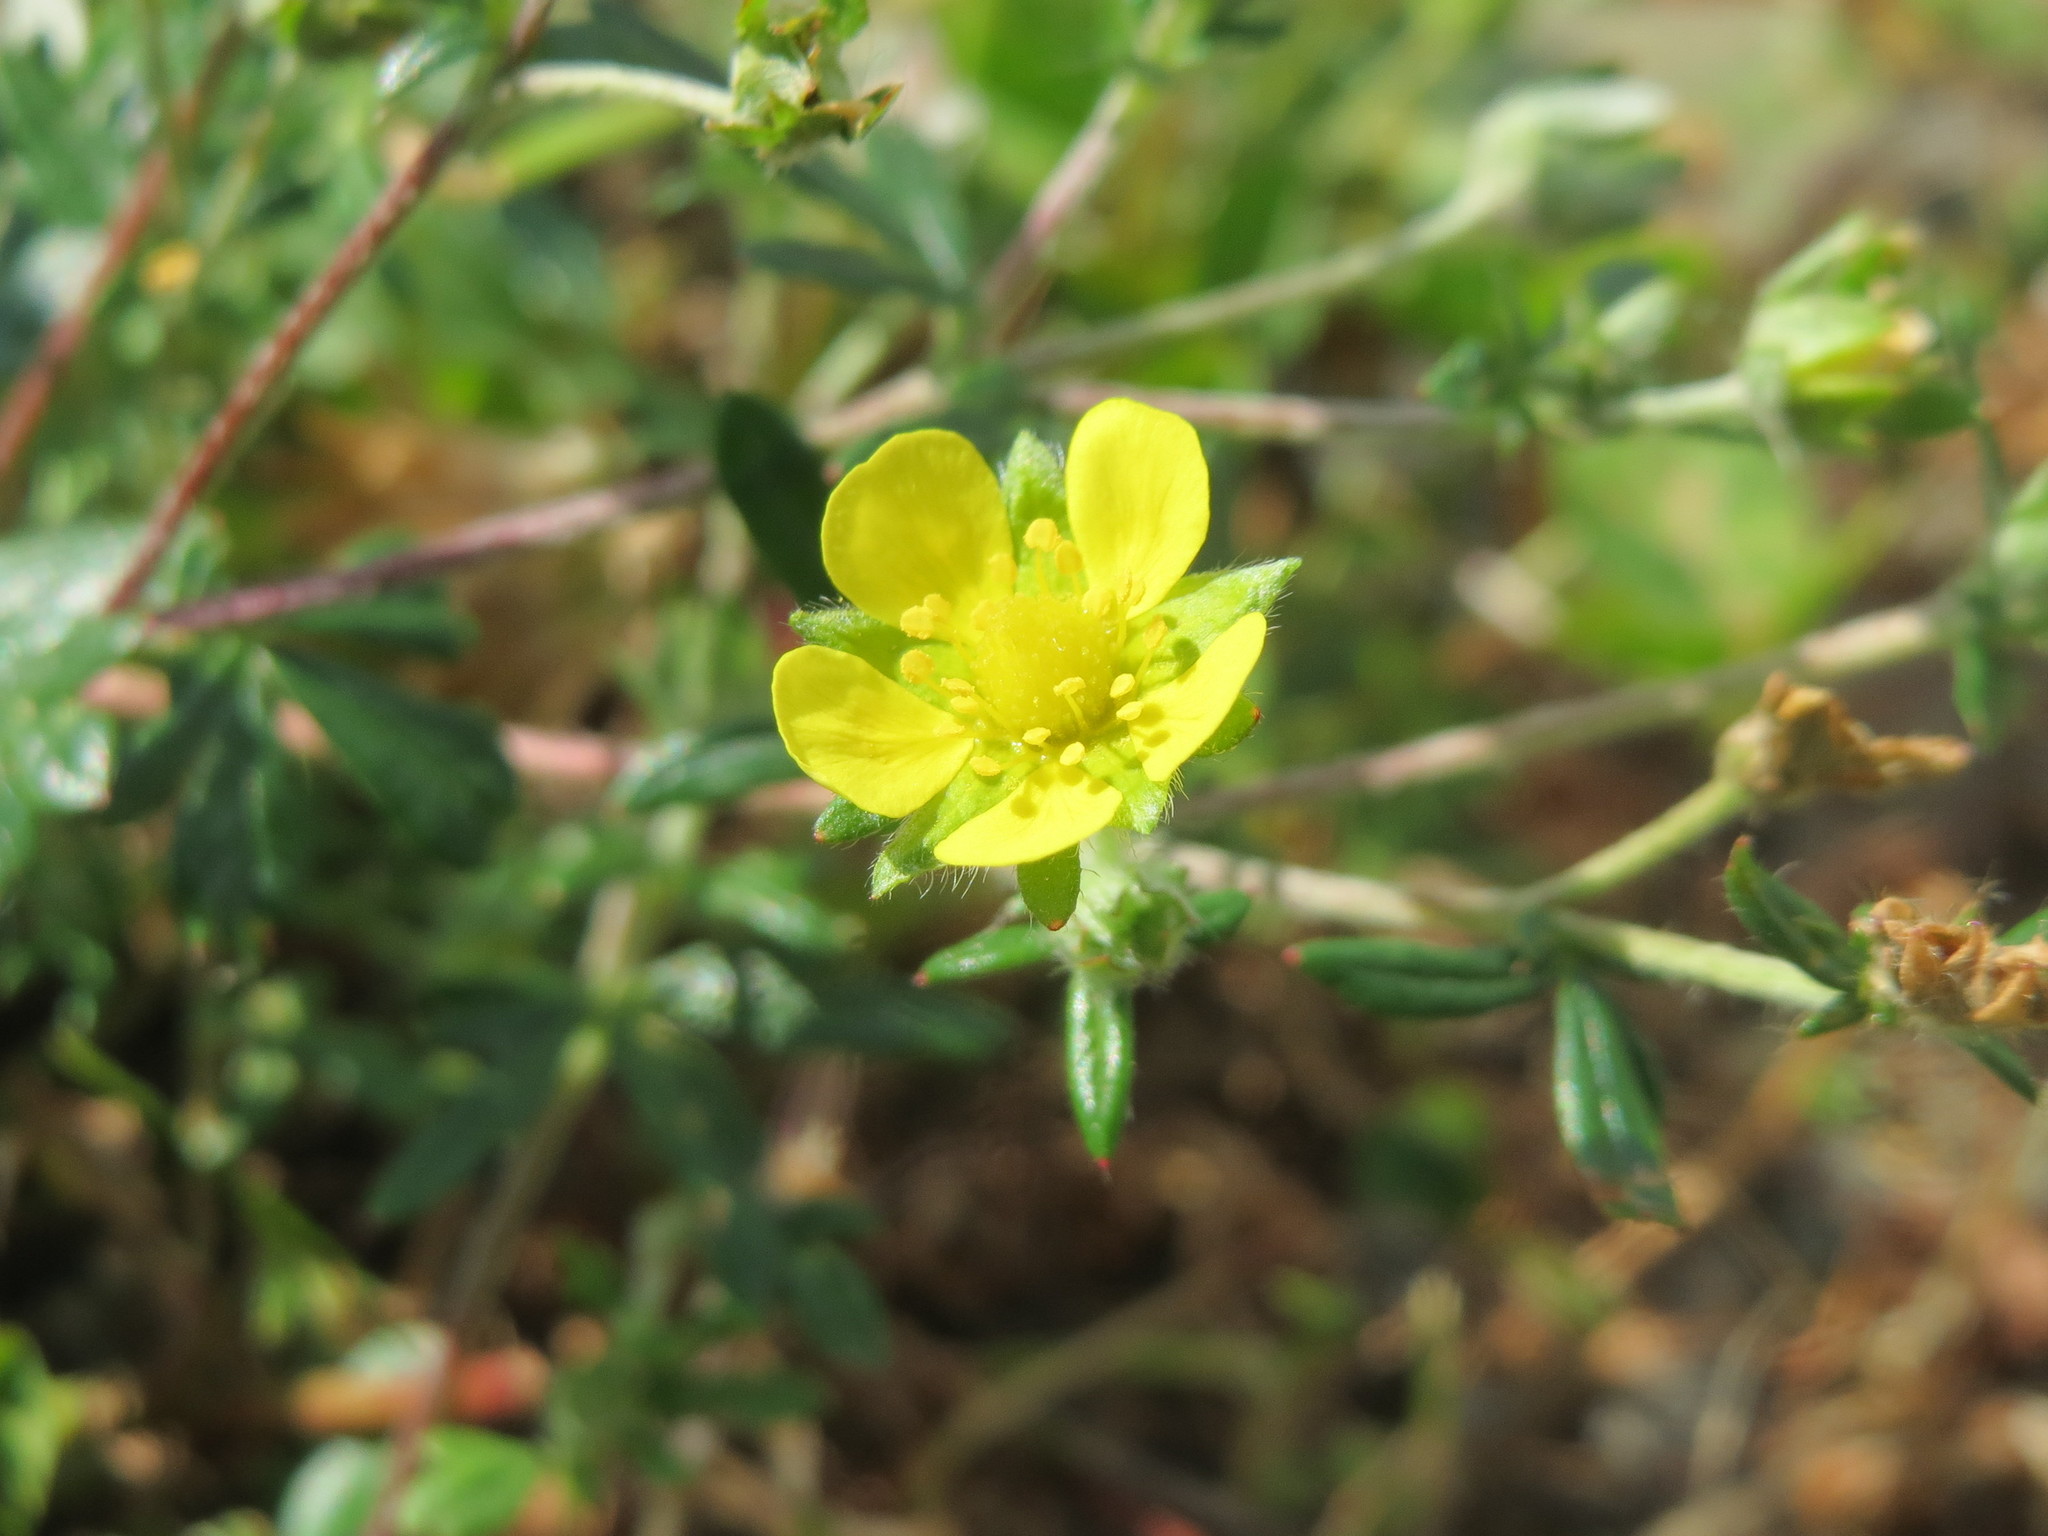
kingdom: Plantae
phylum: Tracheophyta
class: Magnoliopsida
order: Rosales
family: Rosaceae
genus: Potentilla
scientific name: Potentilla argentea
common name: Hoary cinquefoil
